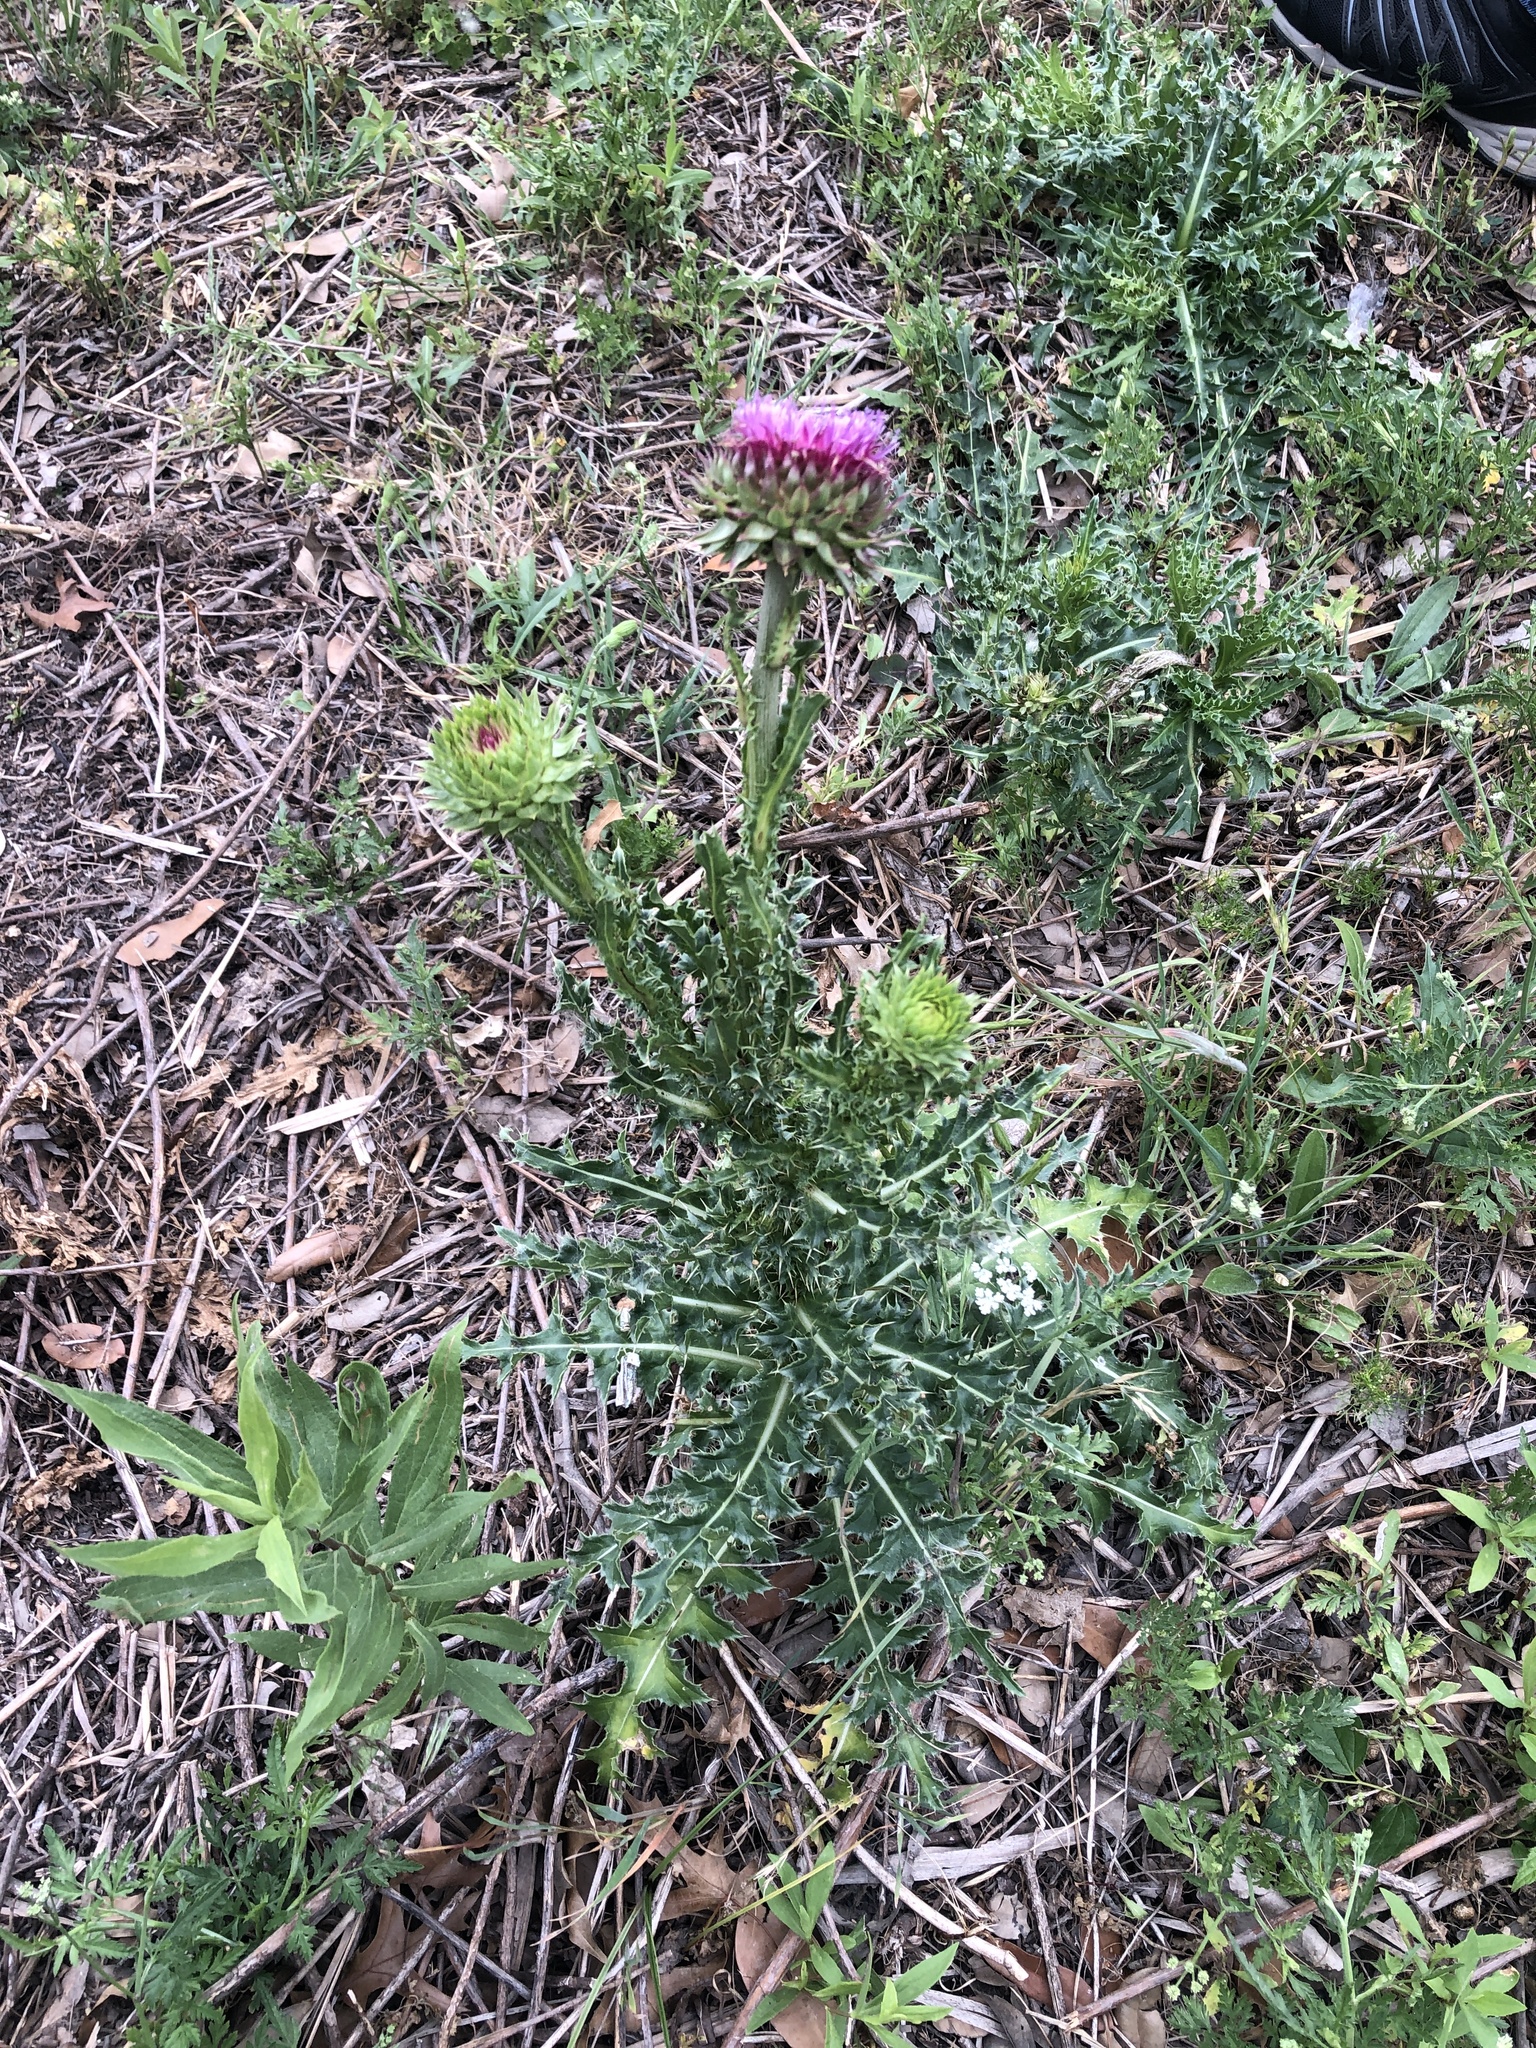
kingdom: Plantae
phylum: Tracheophyta
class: Magnoliopsida
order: Asterales
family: Asteraceae
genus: Carduus
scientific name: Carduus nutans
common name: Musk thistle
